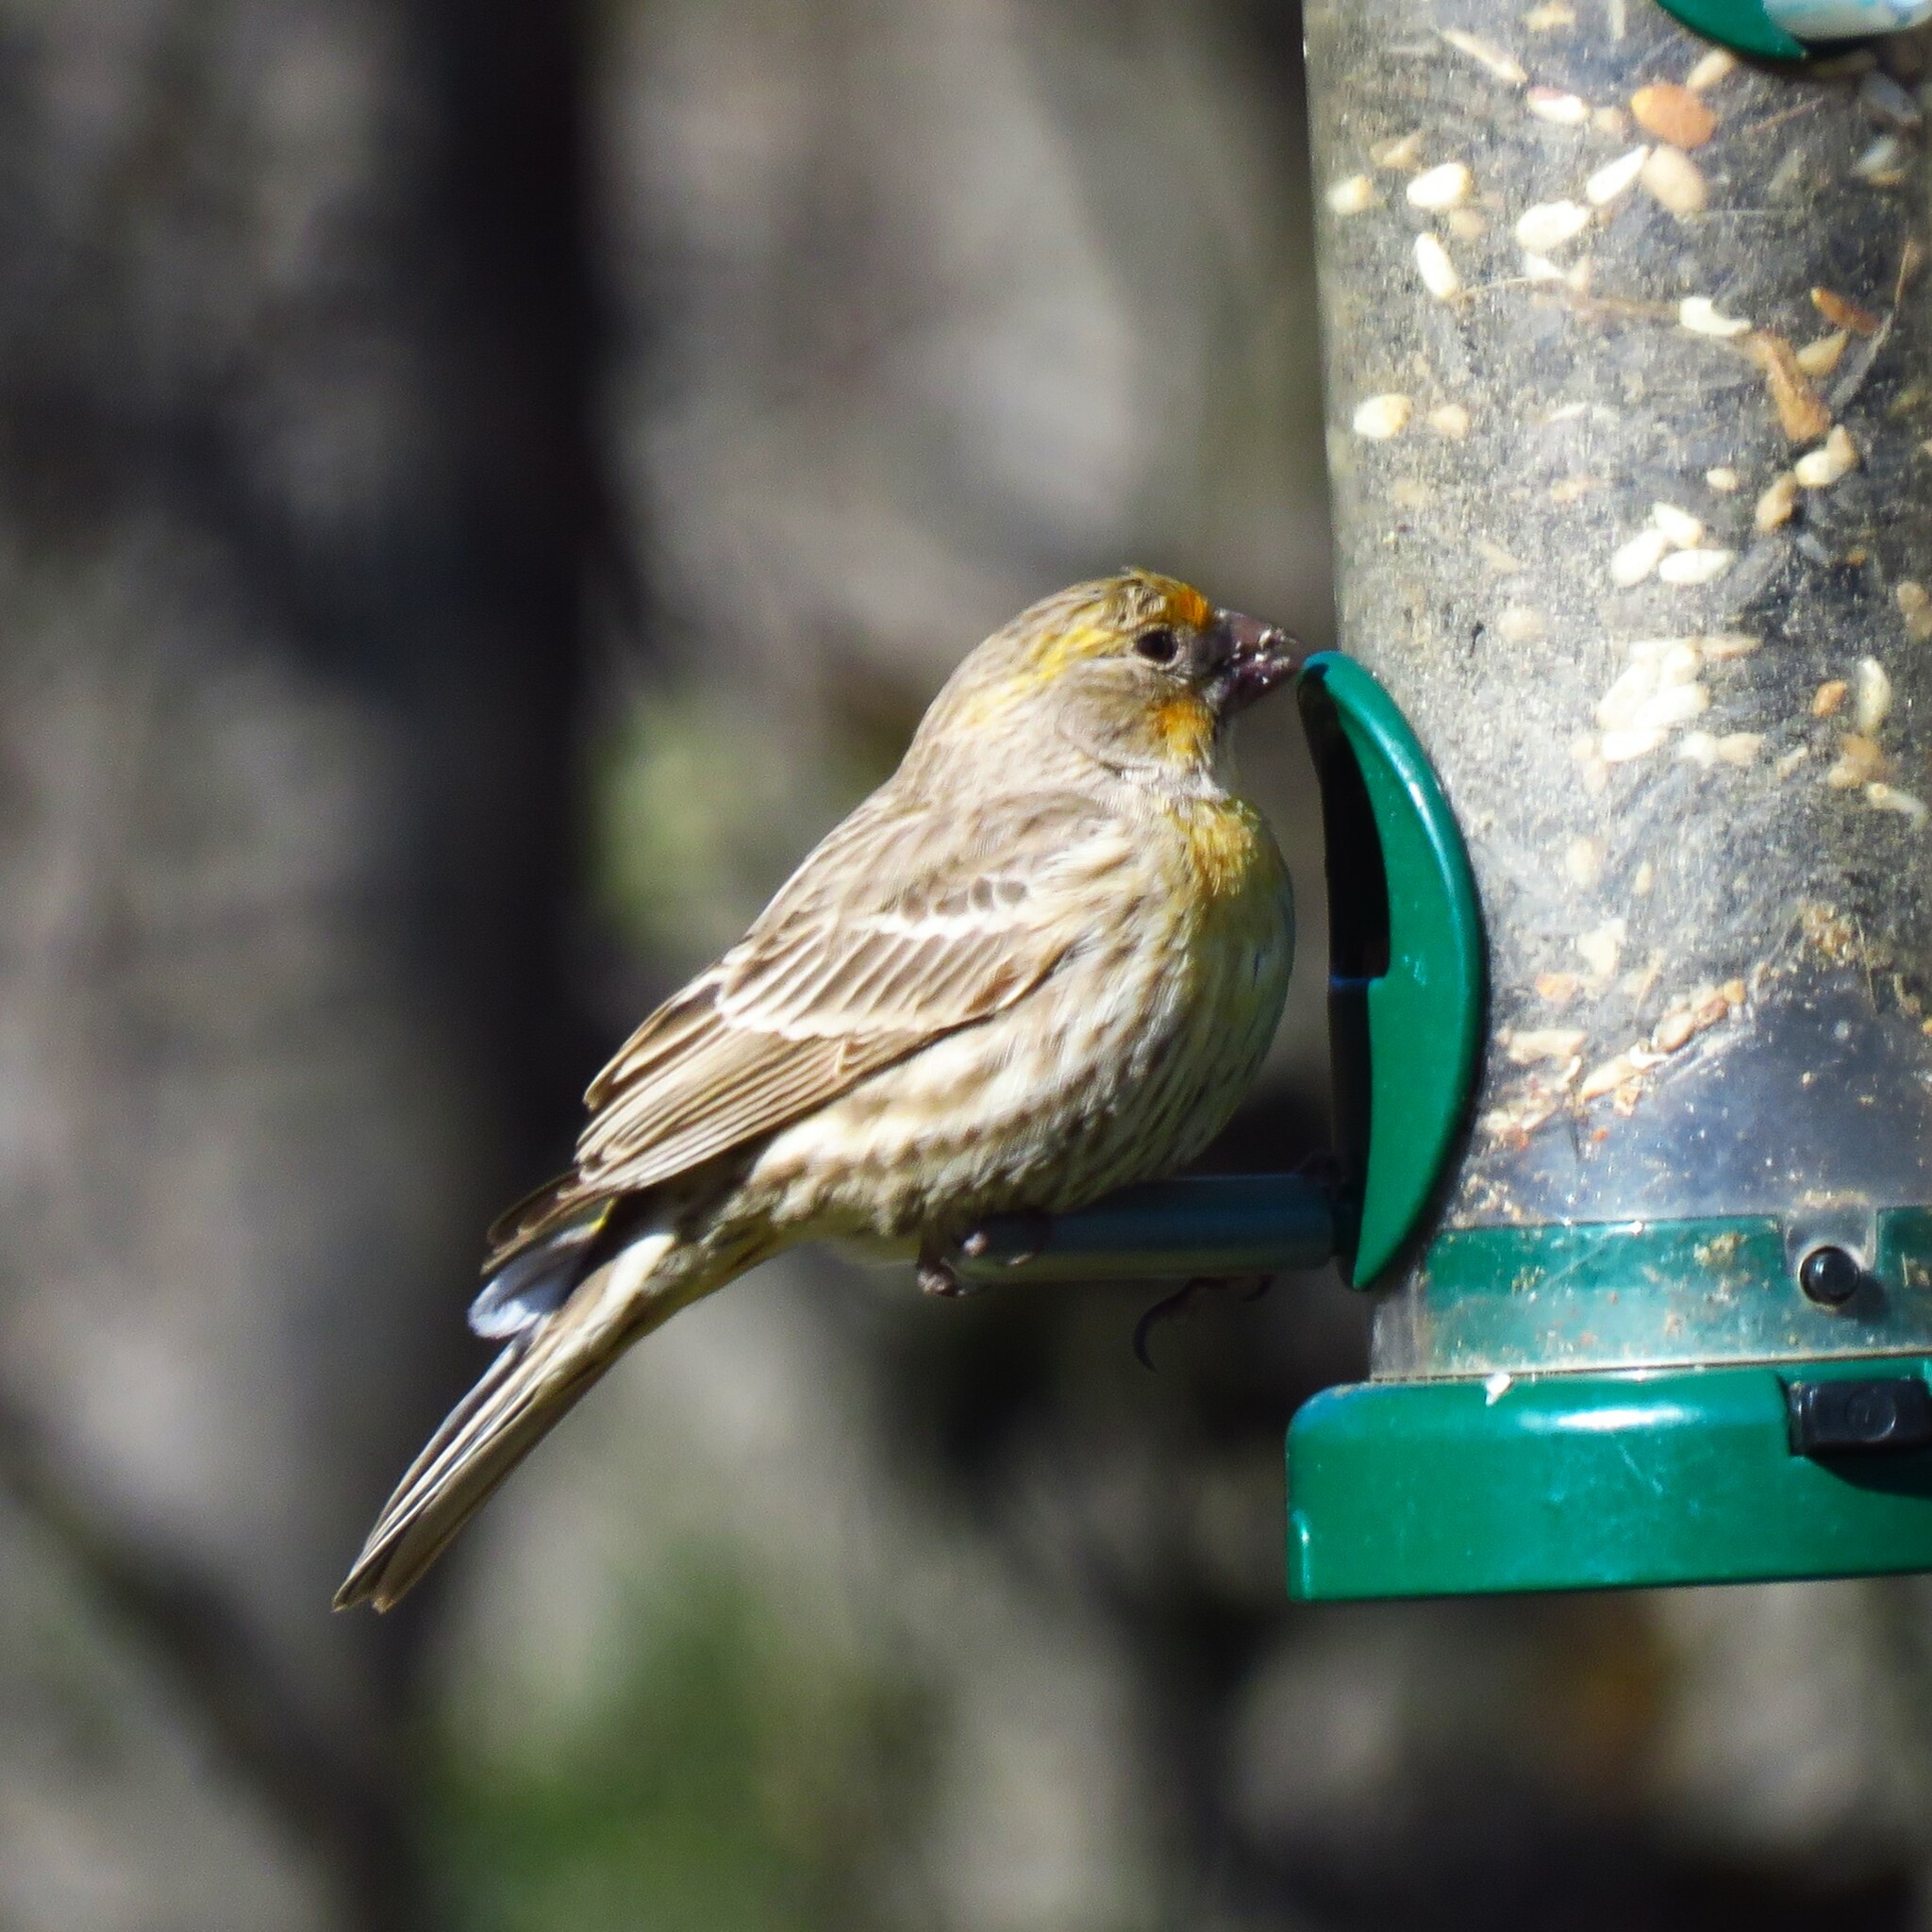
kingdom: Animalia
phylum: Chordata
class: Aves
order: Passeriformes
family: Fringillidae
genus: Haemorhous
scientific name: Haemorhous mexicanus
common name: House finch
